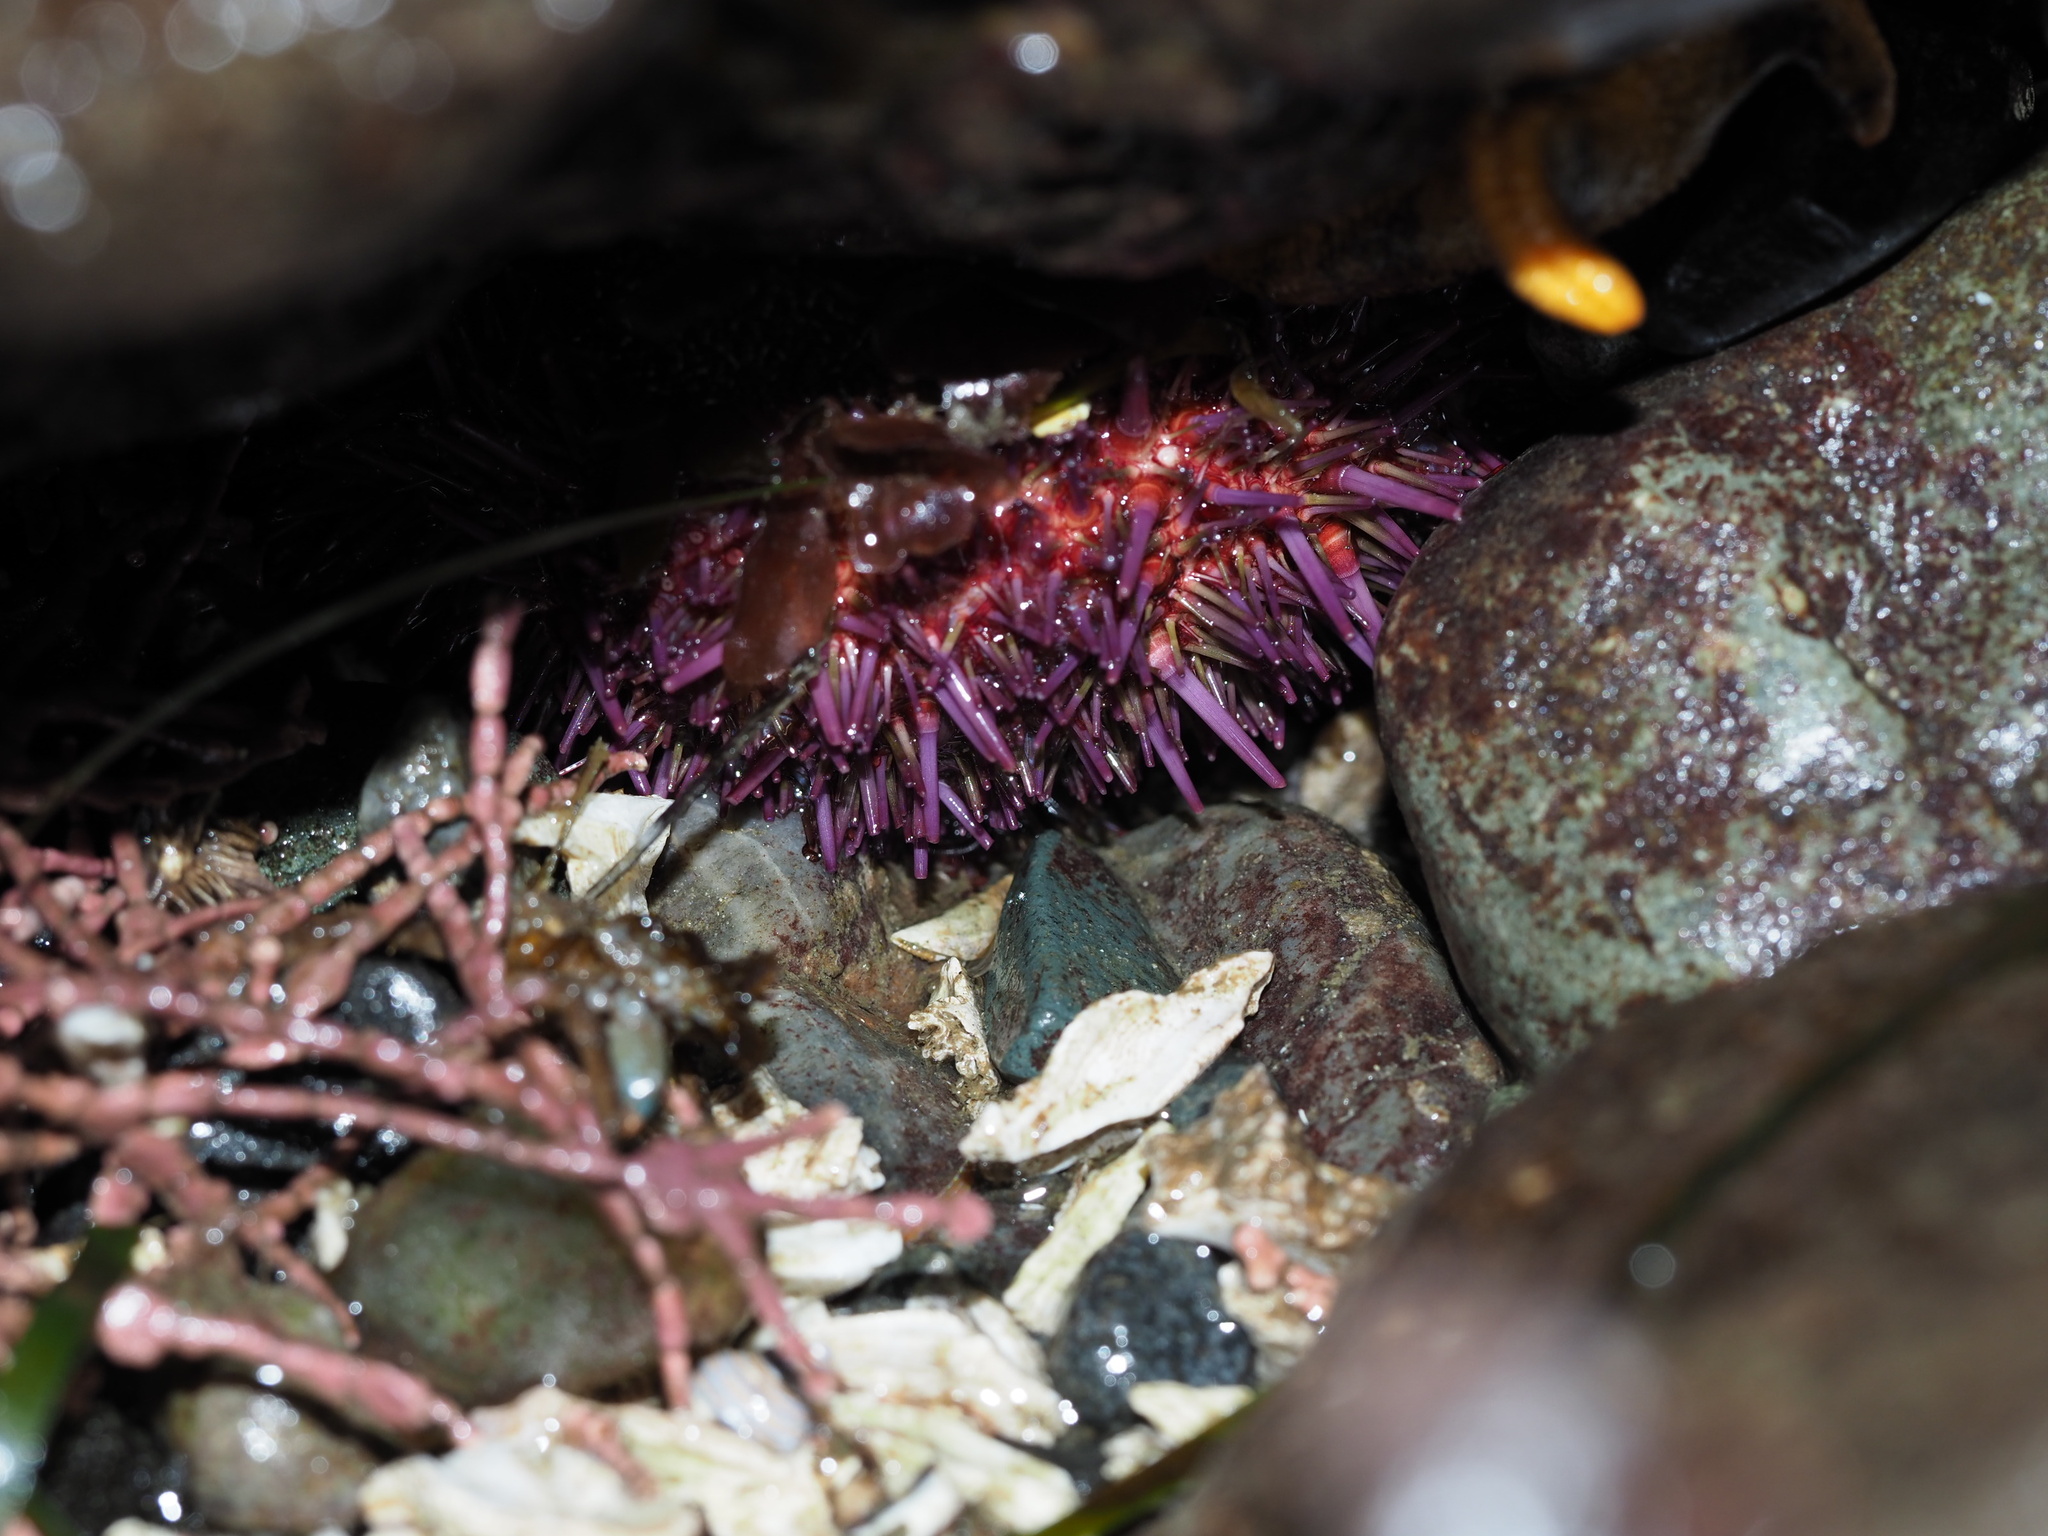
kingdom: Animalia
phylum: Echinodermata
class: Echinoidea
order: Camarodonta
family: Strongylocentrotidae
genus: Strongylocentrotus
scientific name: Strongylocentrotus purpuratus
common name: Purple sea urchin
